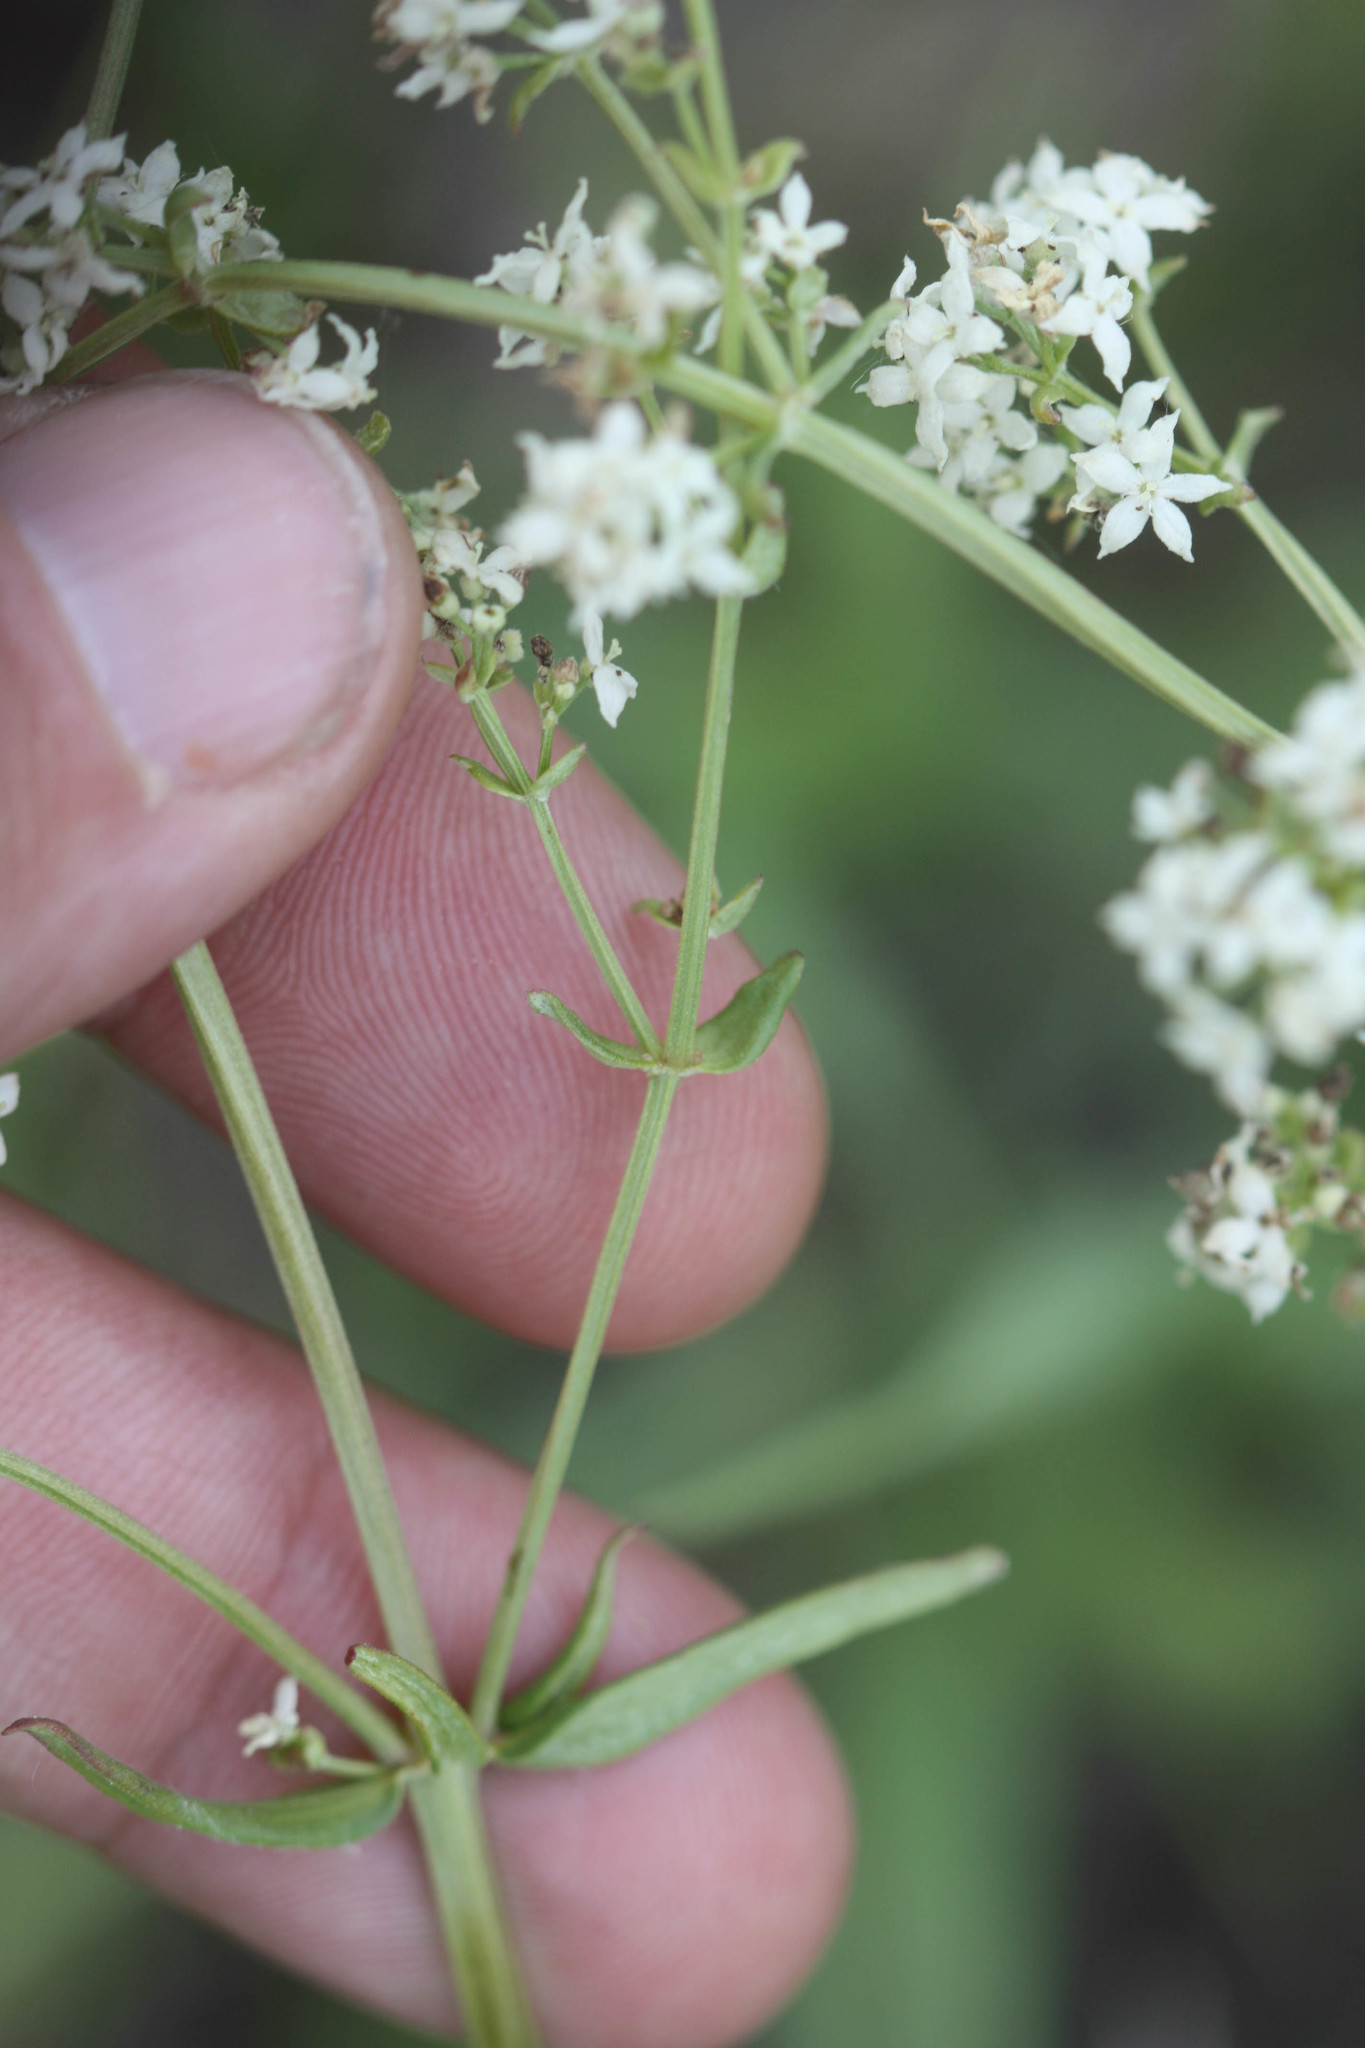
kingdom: Plantae
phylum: Tracheophyta
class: Magnoliopsida
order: Gentianales
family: Rubiaceae
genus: Galium
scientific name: Galium boreale
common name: Northern bedstraw
